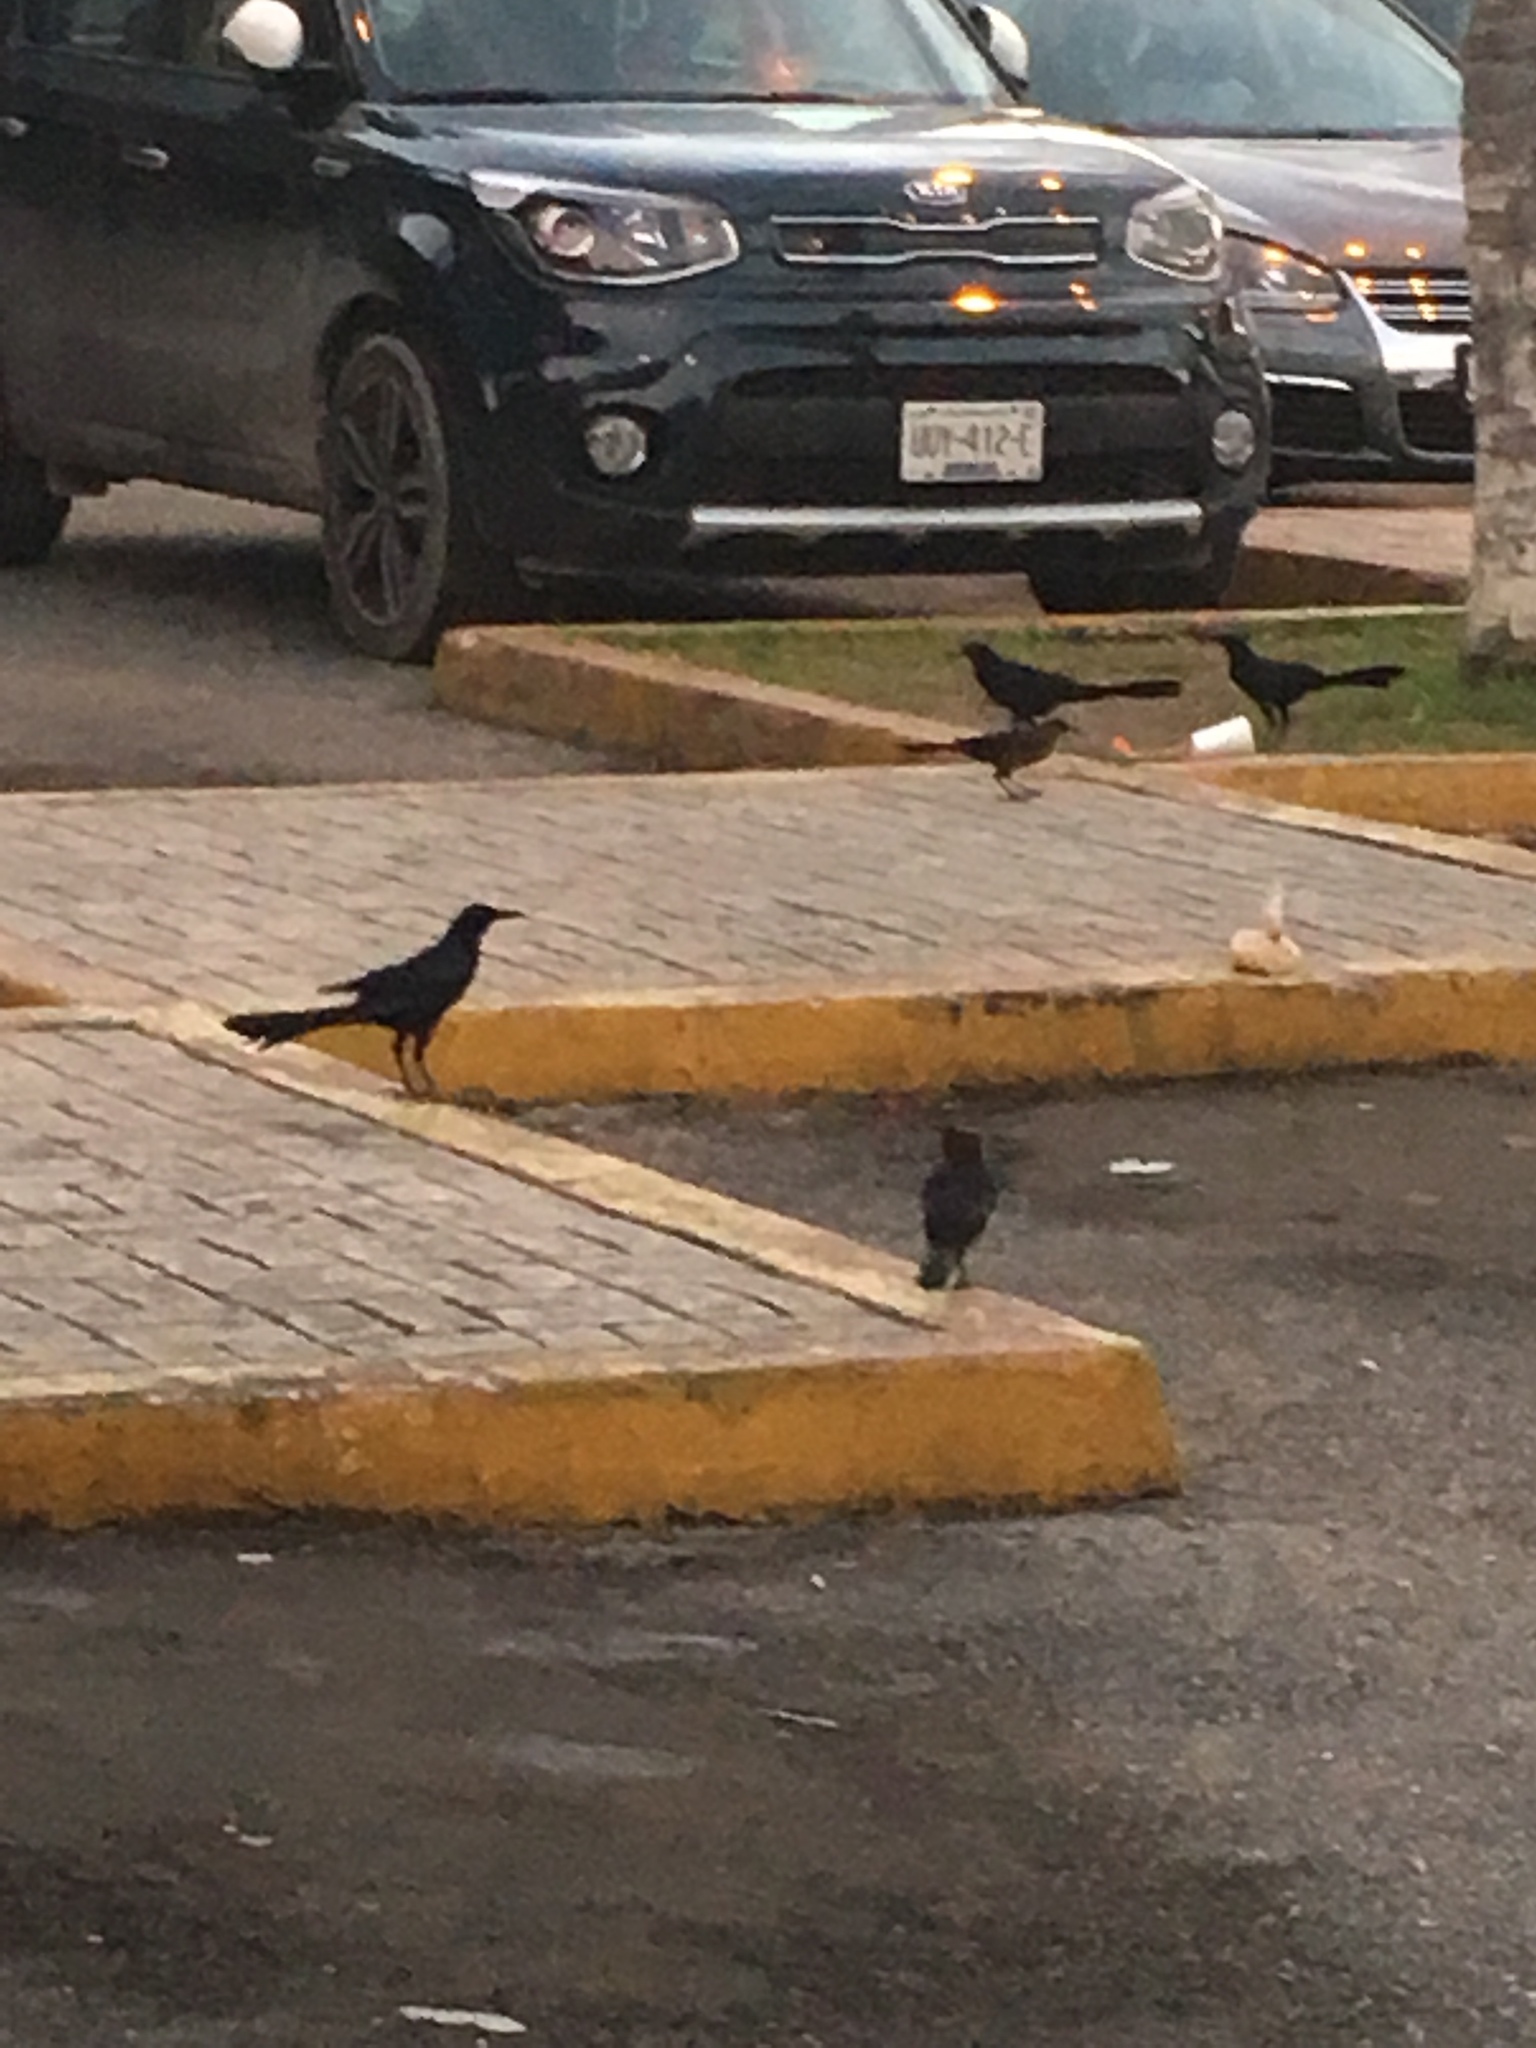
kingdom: Animalia
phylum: Chordata
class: Aves
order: Passeriformes
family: Icteridae
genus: Quiscalus
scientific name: Quiscalus mexicanus
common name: Great-tailed grackle
